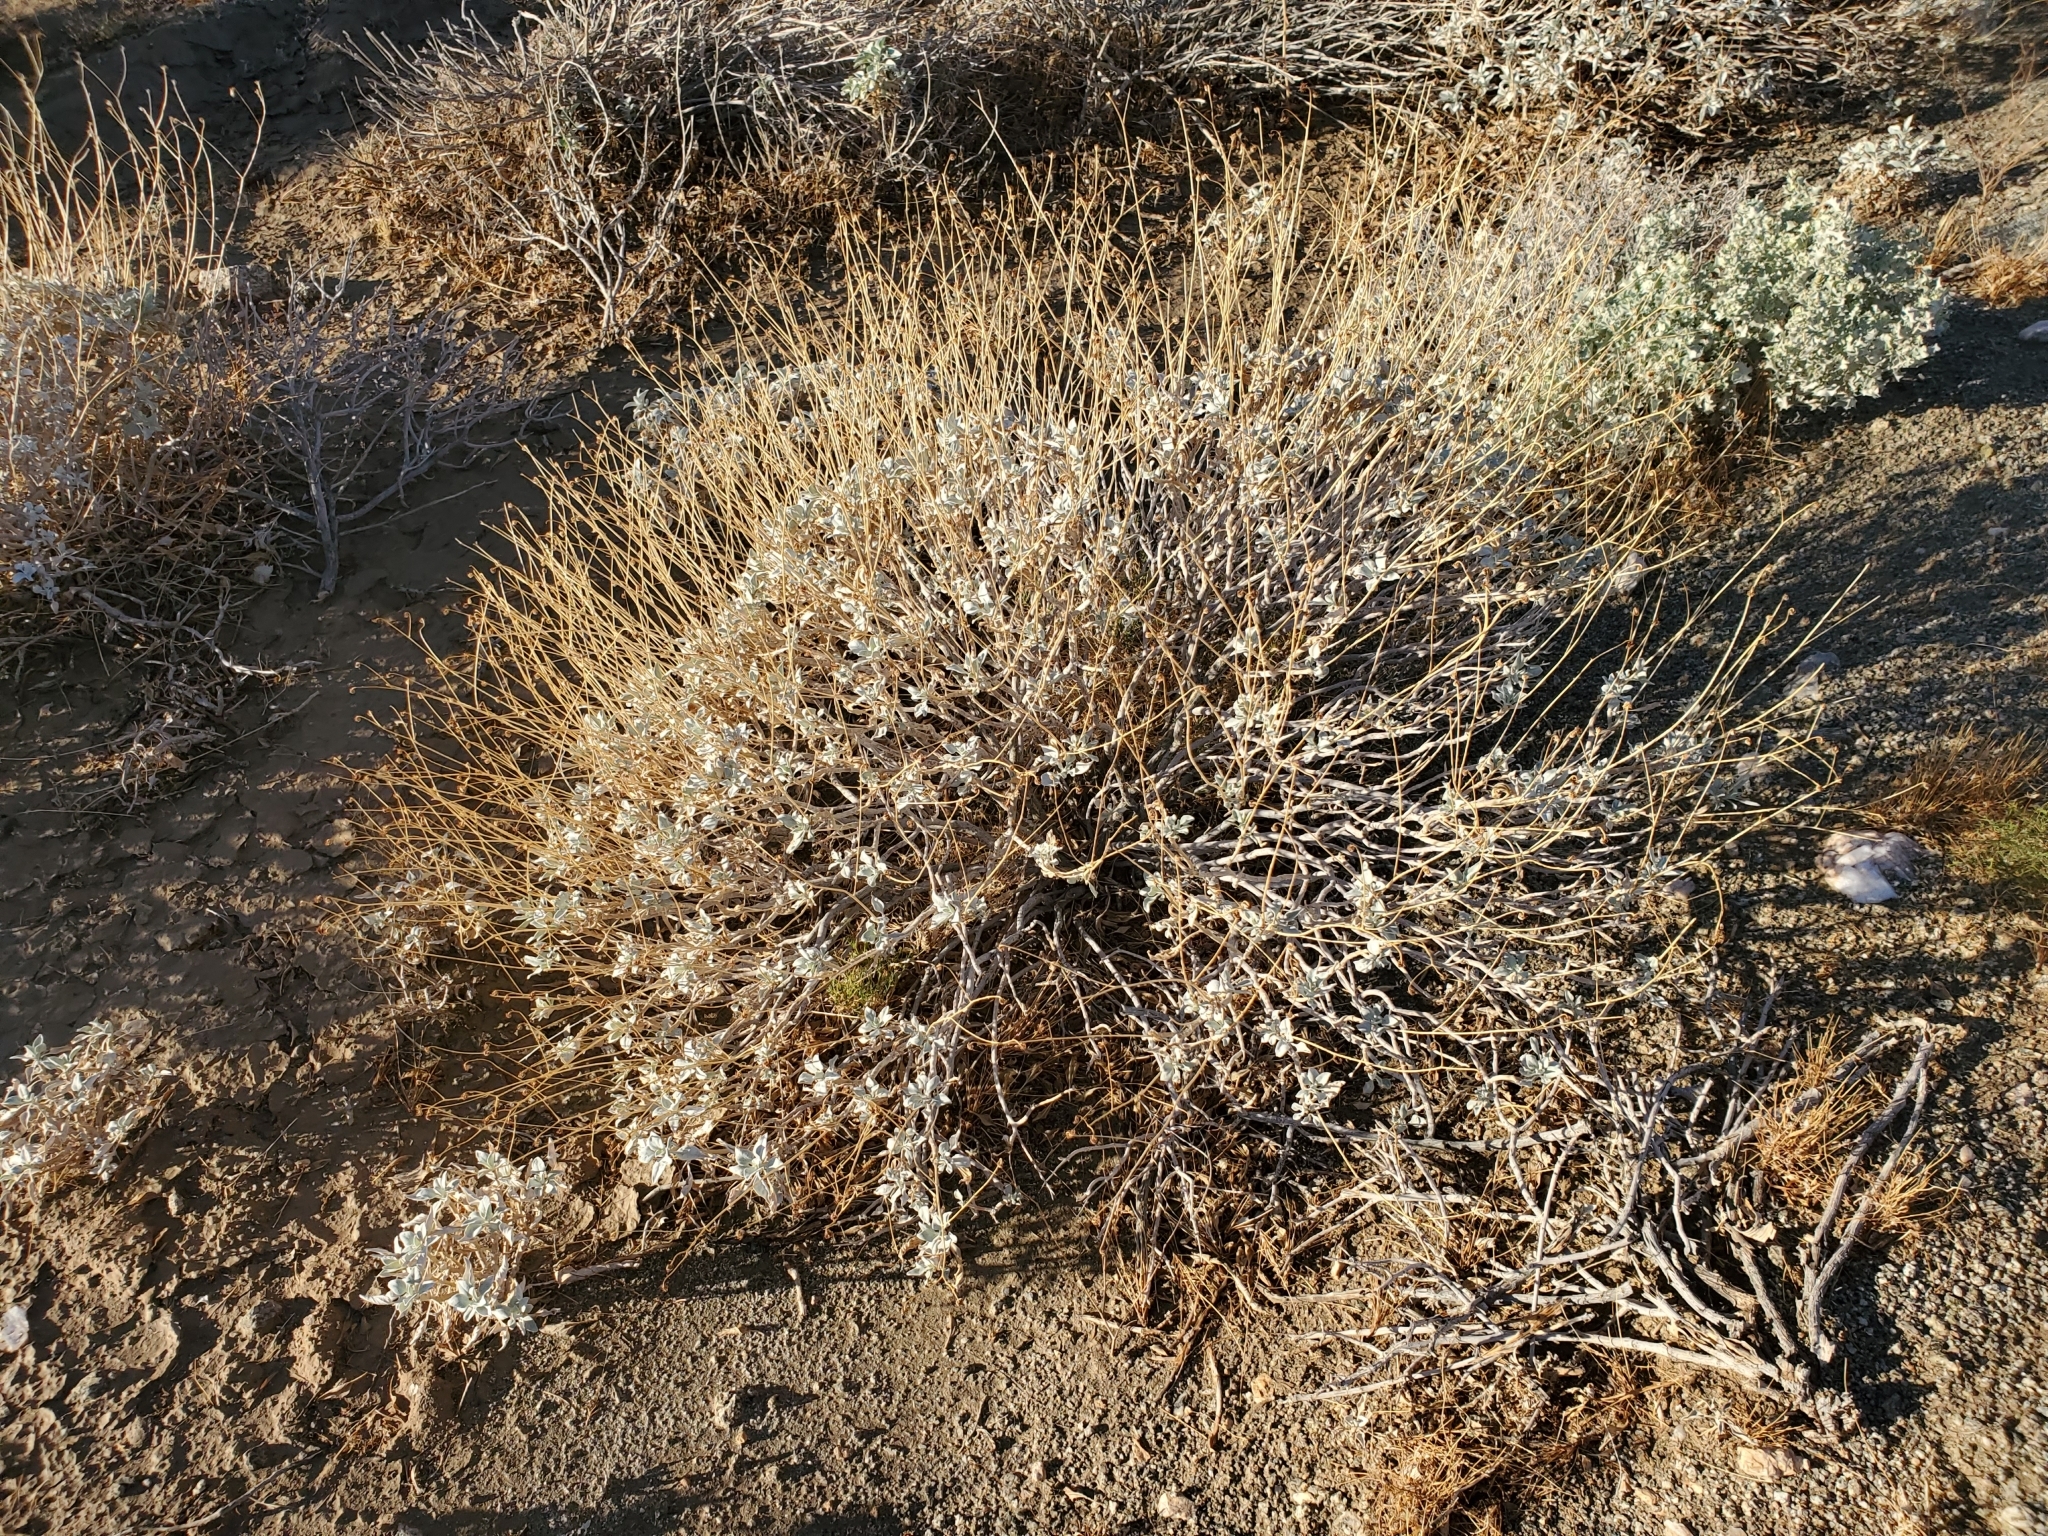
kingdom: Plantae
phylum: Tracheophyta
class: Magnoliopsida
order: Asterales
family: Asteraceae
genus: Encelia
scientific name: Encelia farinosa
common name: Brittlebush
